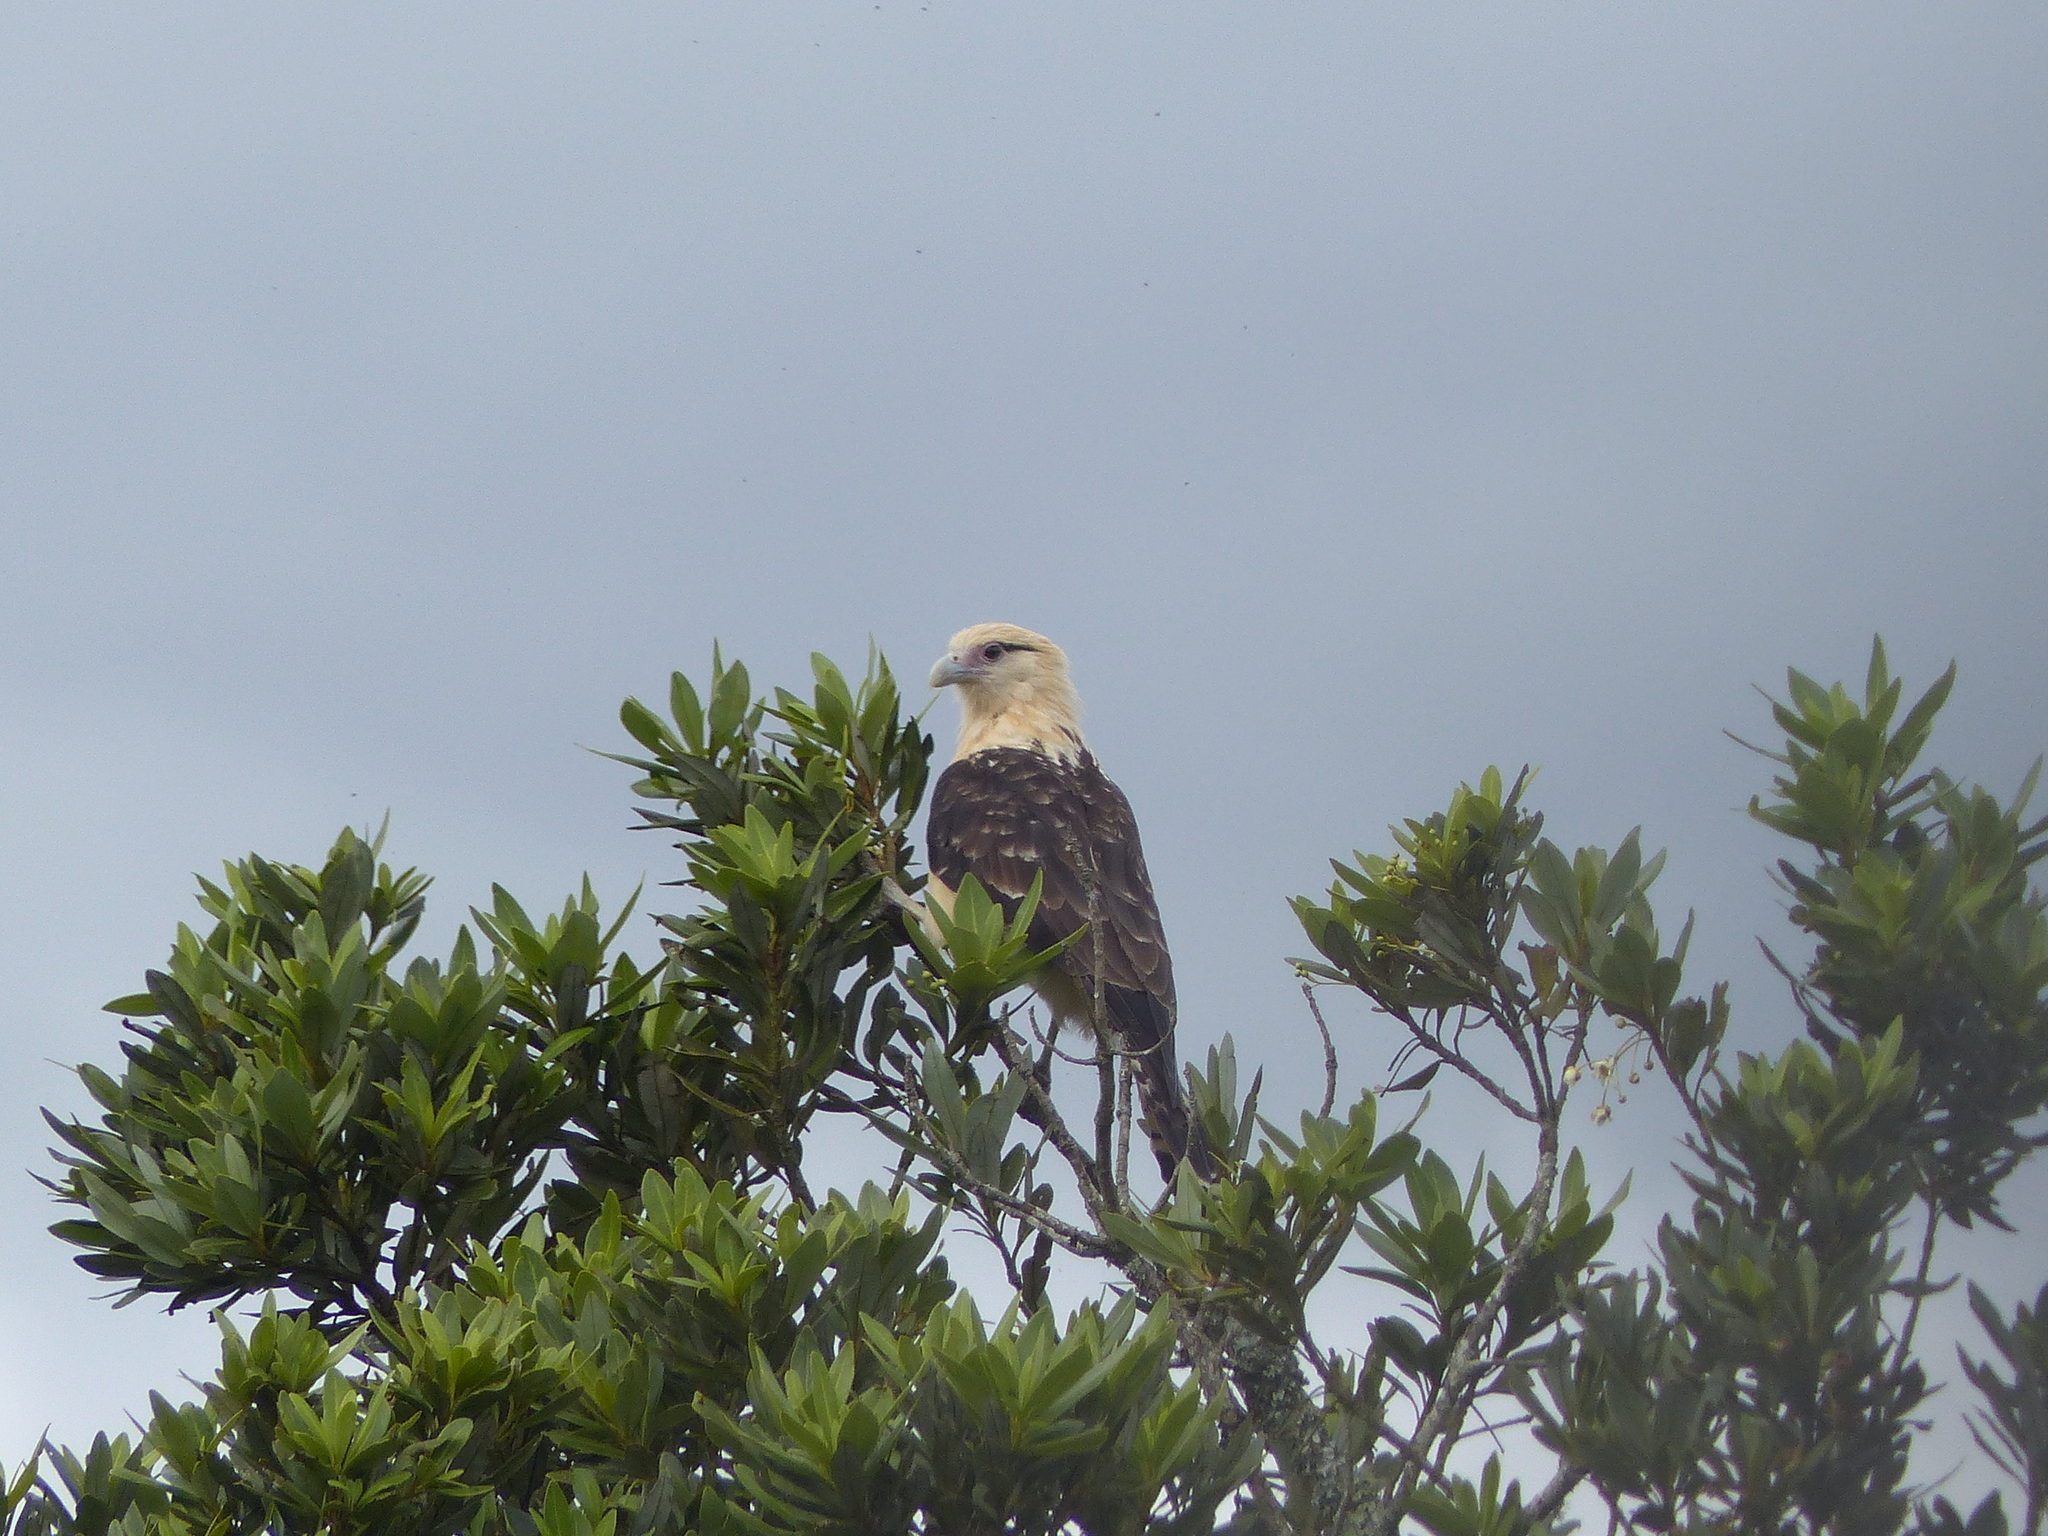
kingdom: Animalia
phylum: Chordata
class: Aves
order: Falconiformes
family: Falconidae
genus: Daptrius
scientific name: Daptrius
